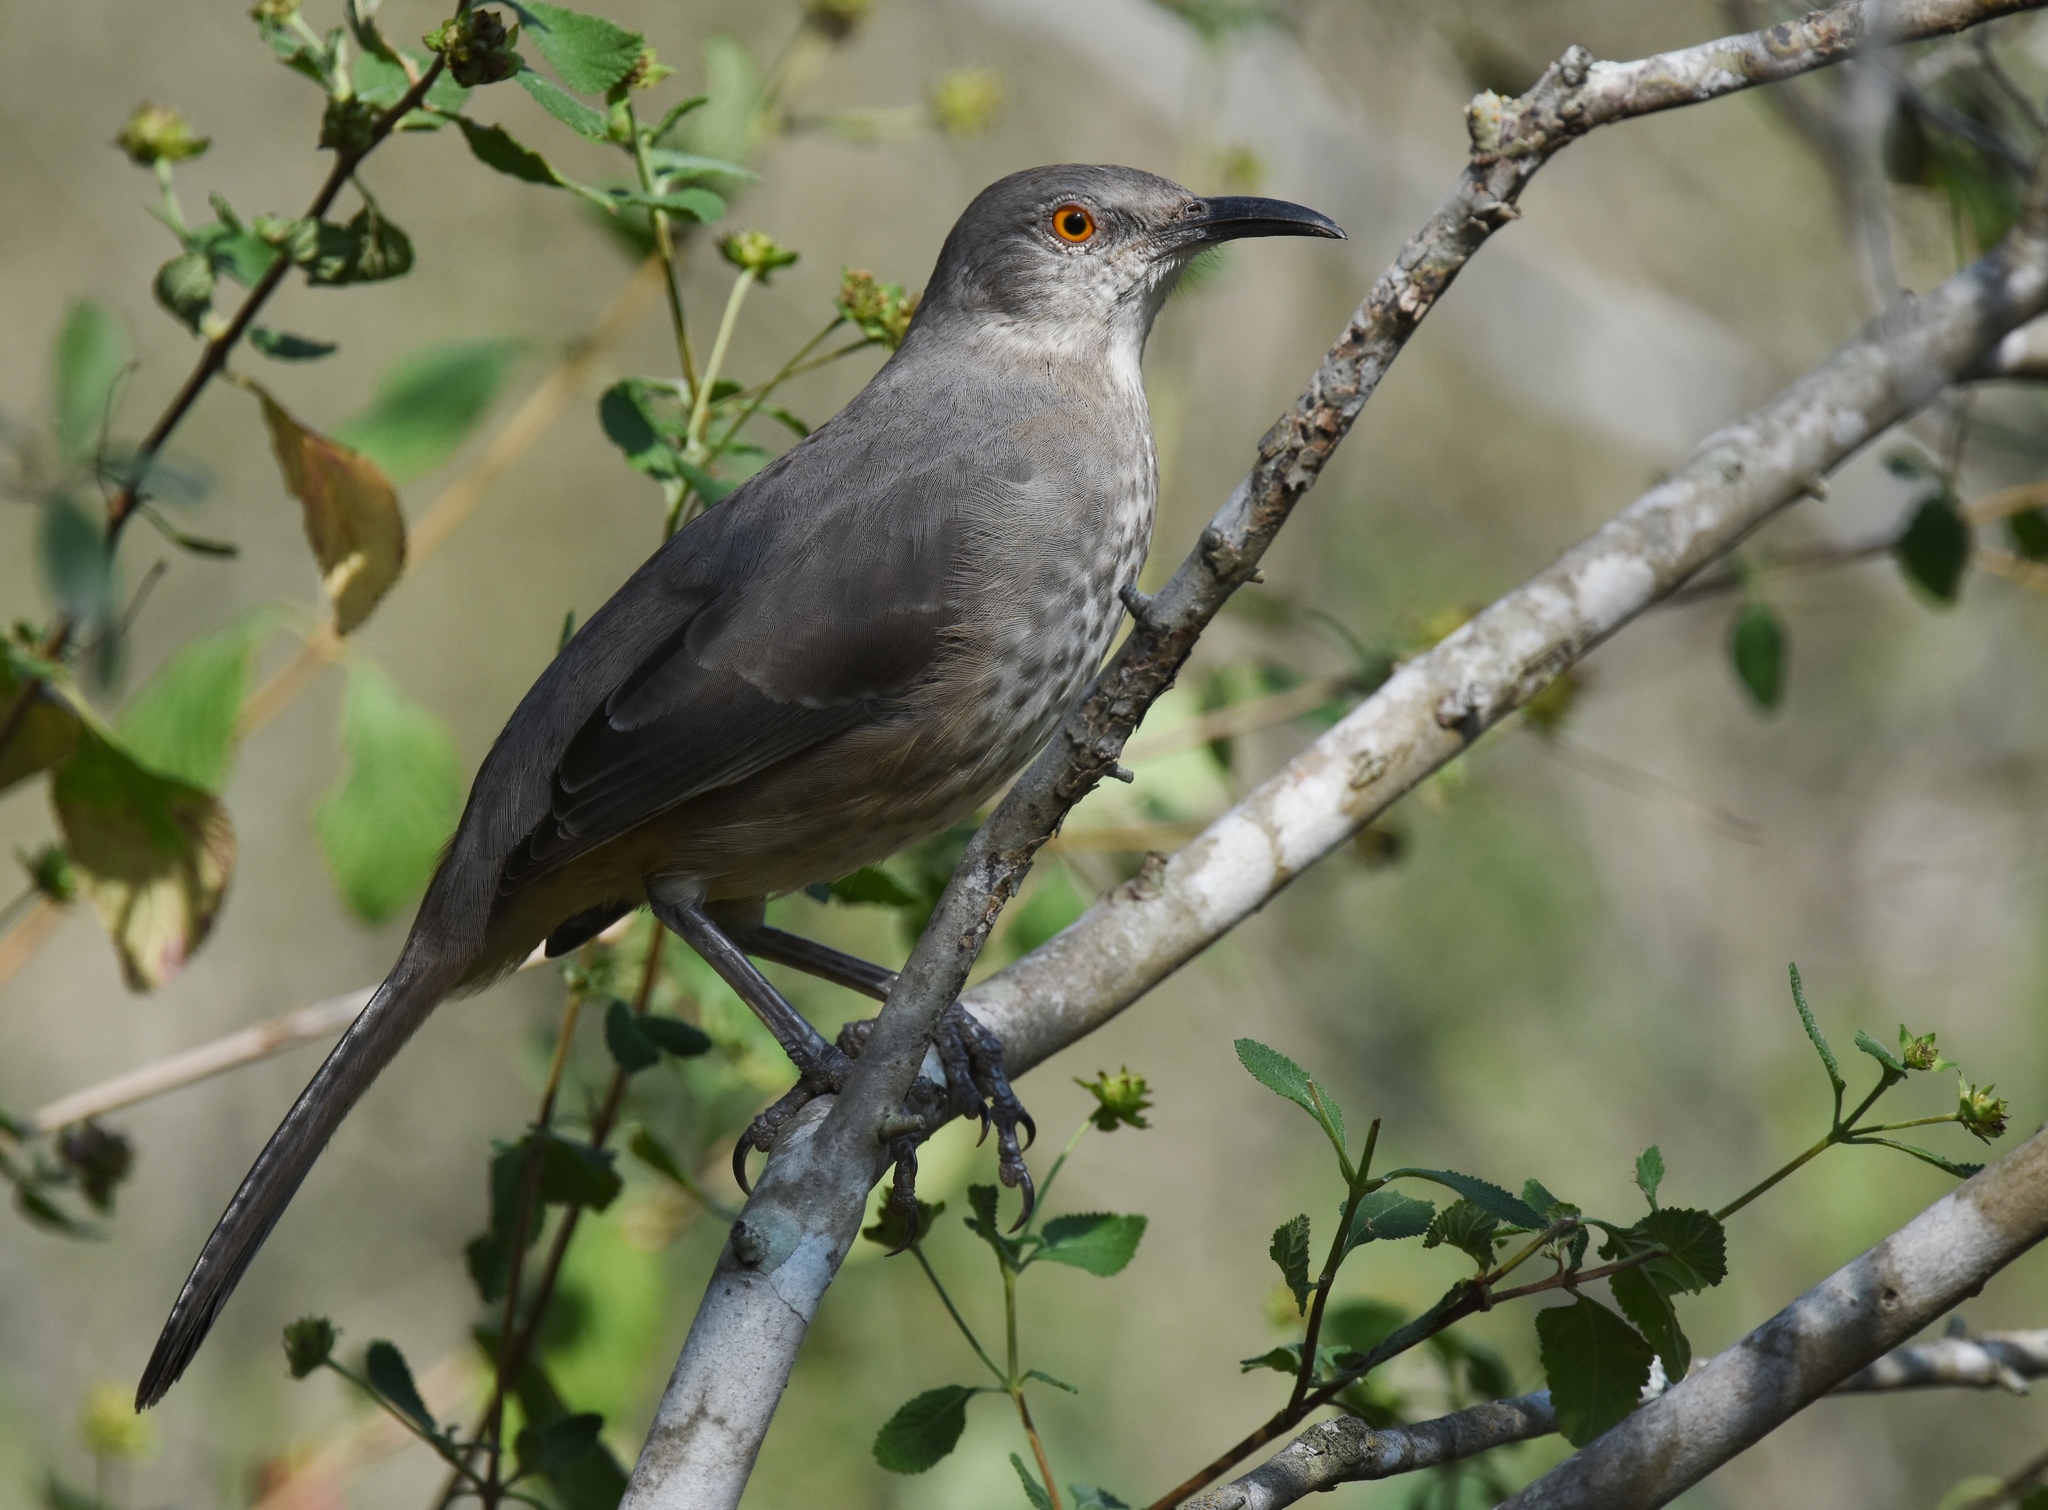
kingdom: Animalia
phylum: Chordata
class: Aves
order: Passeriformes
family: Mimidae
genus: Toxostoma
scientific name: Toxostoma curvirostre
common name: Curve-billed thrasher
